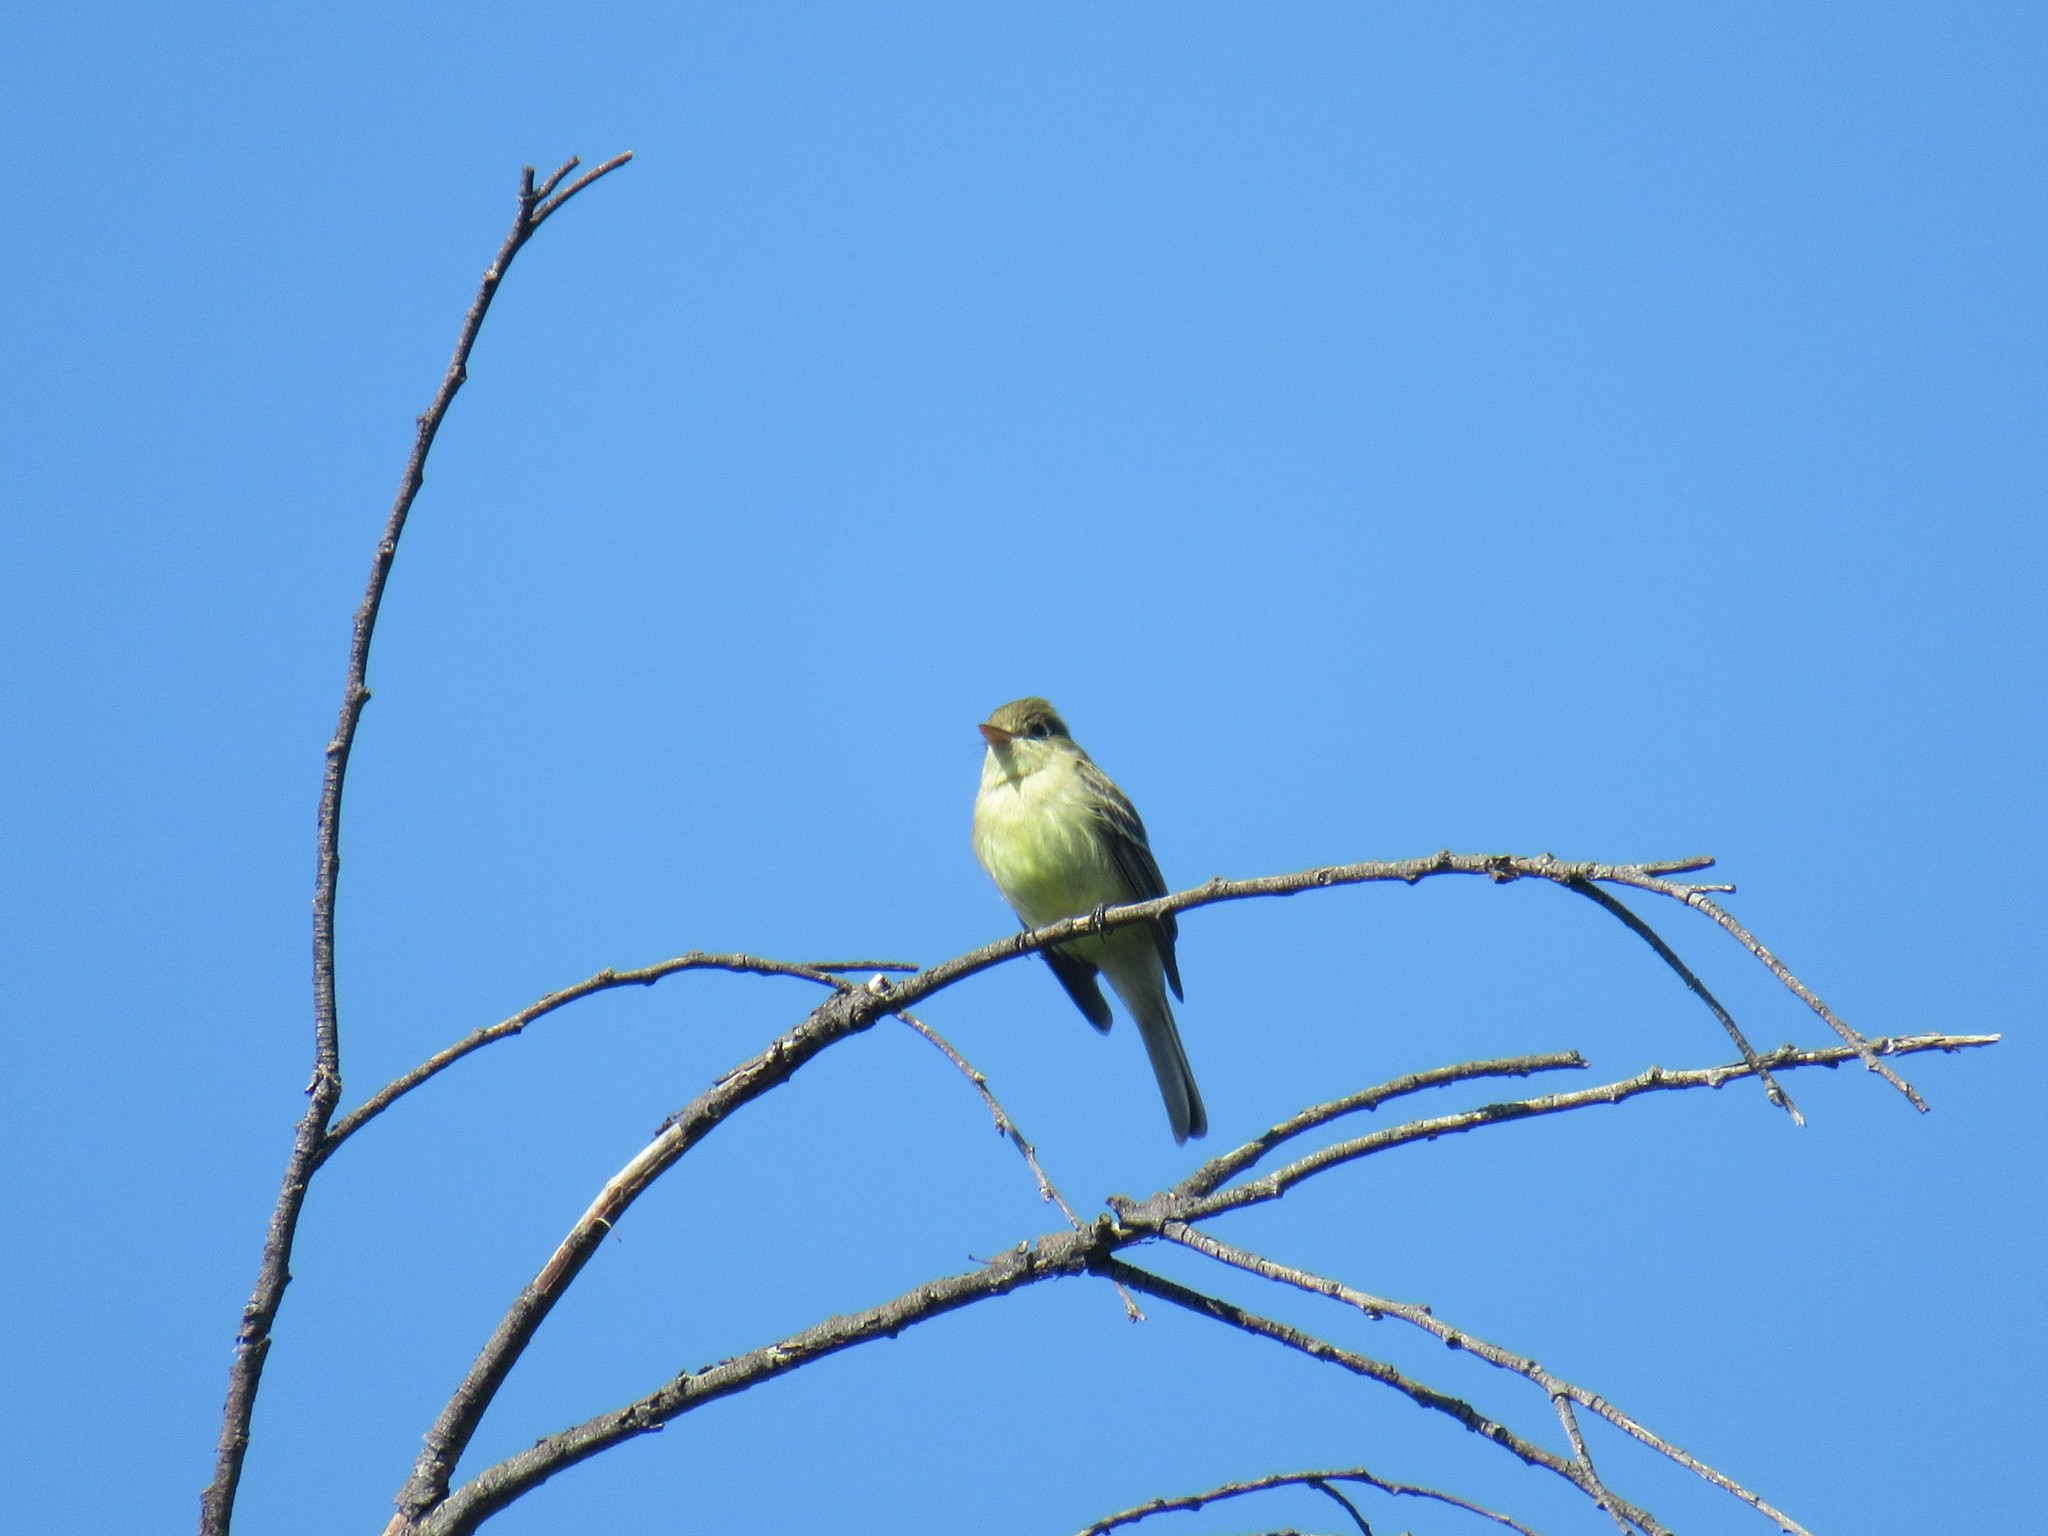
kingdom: Animalia
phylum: Chordata
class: Aves
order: Passeriformes
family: Tyrannidae
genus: Empidonax
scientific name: Empidonax difficilis
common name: Pacific-slope flycatcher
